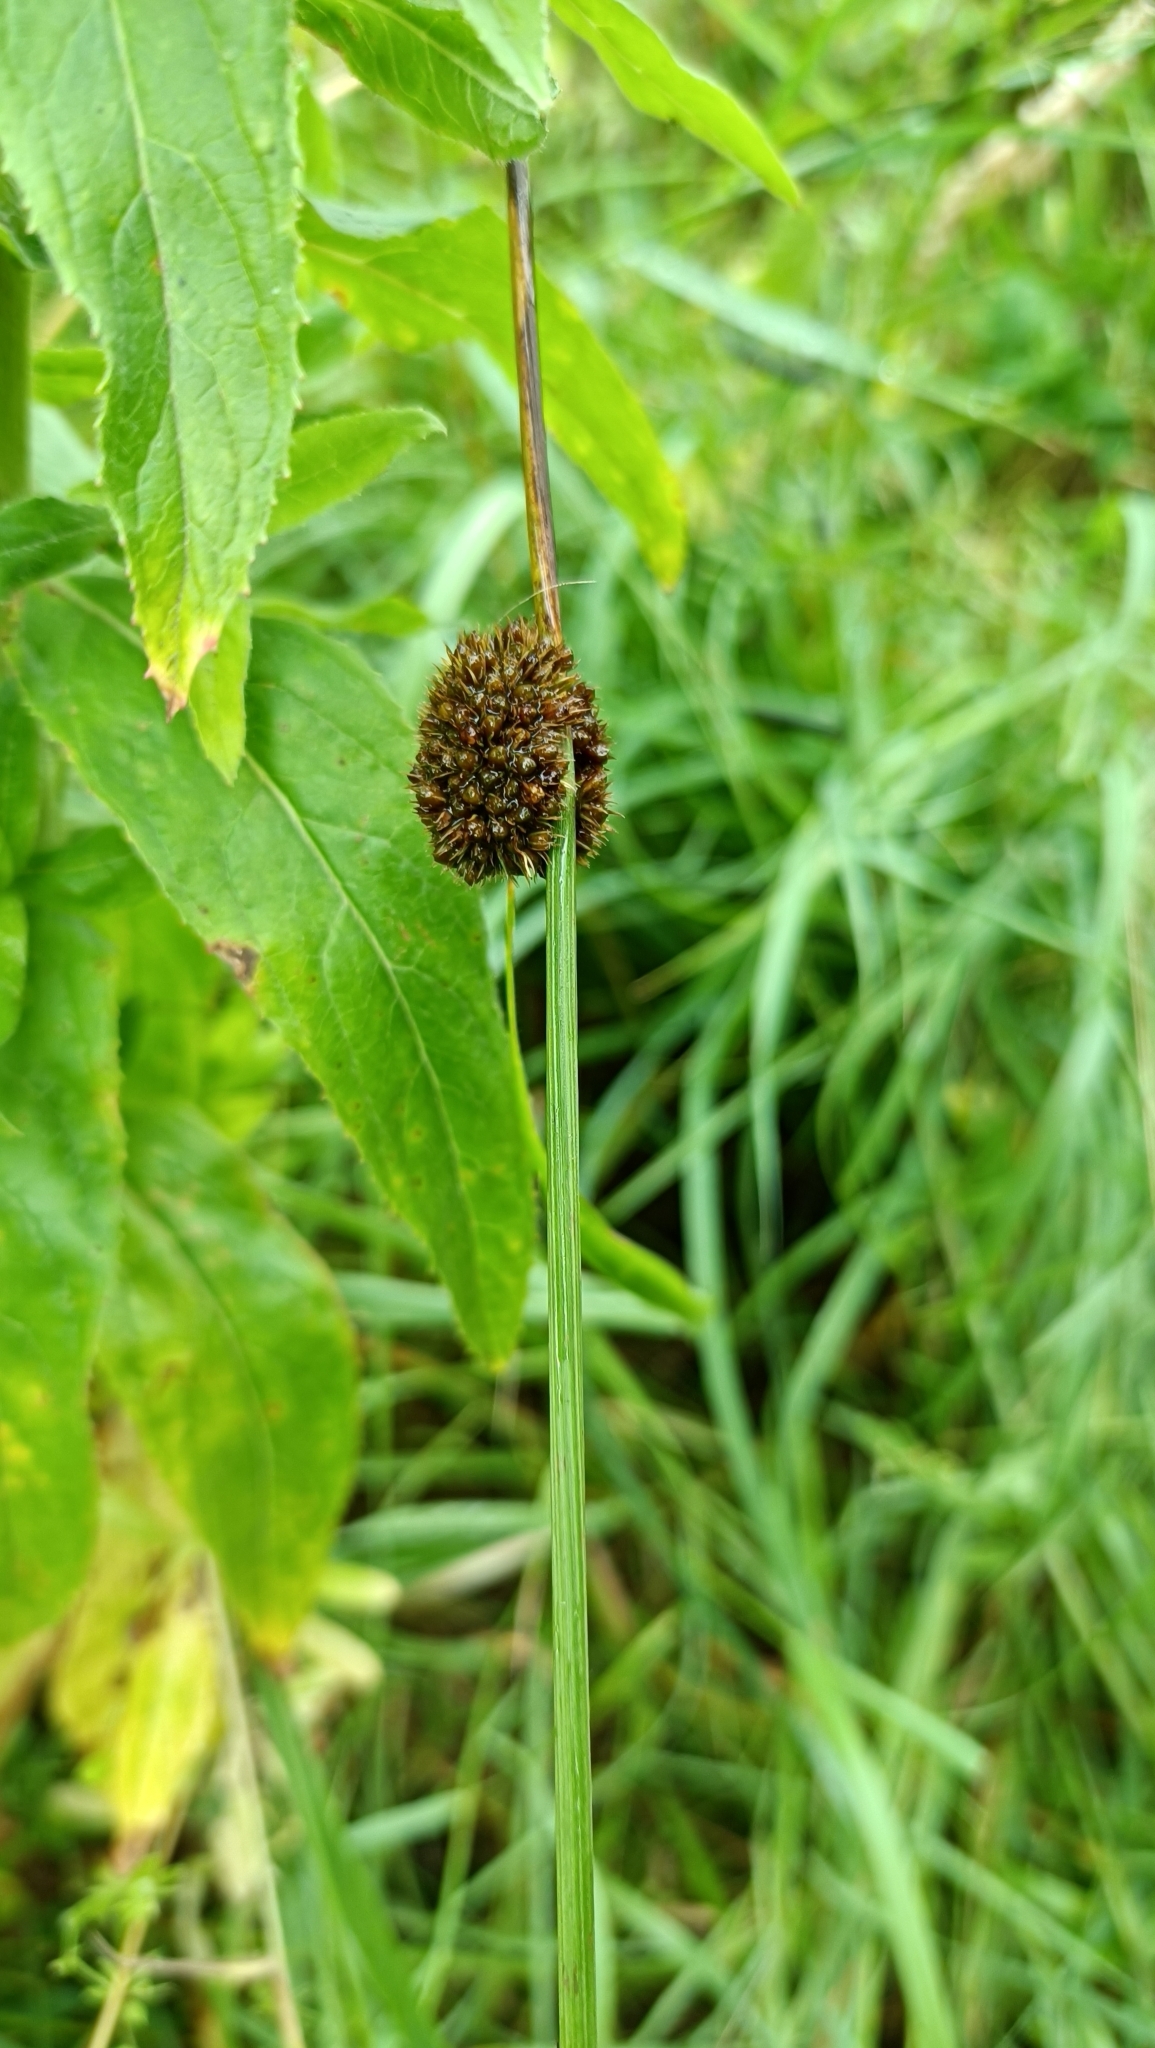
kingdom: Plantae
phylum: Tracheophyta
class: Liliopsida
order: Poales
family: Juncaceae
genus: Juncus
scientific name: Juncus conglomeratus
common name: Compact rush
